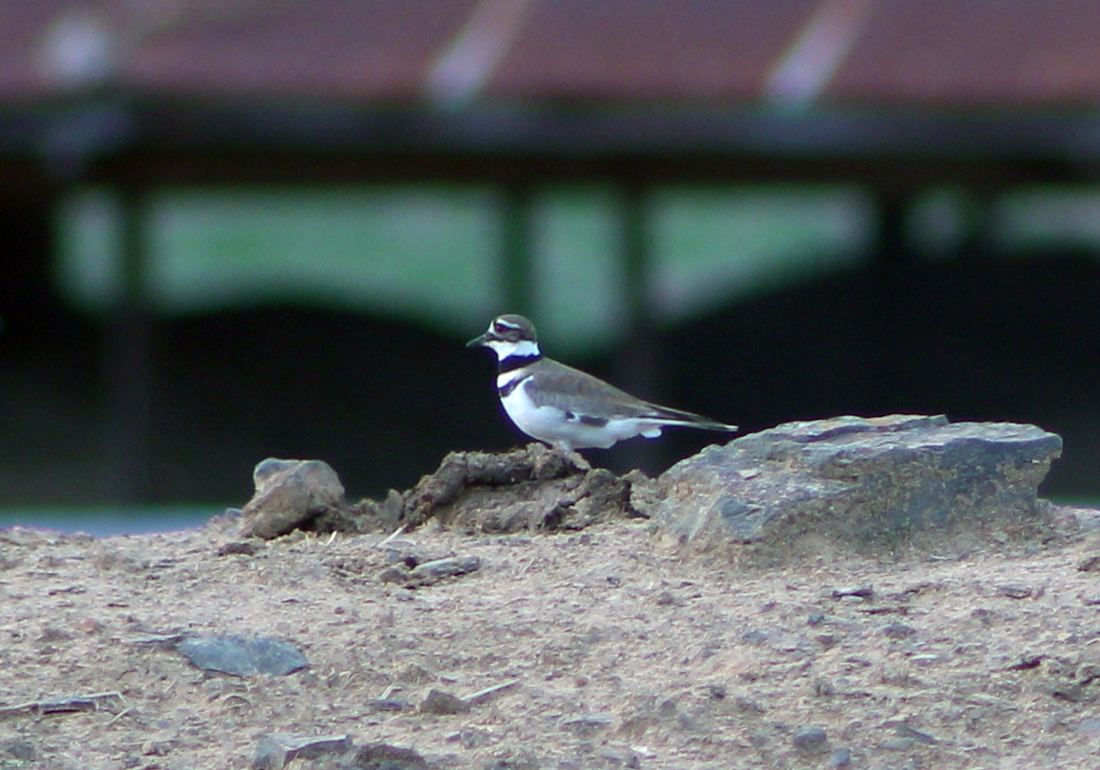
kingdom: Animalia
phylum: Chordata
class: Aves
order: Charadriiformes
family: Charadriidae
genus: Charadrius
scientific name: Charadrius vociferus
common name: Killdeer
